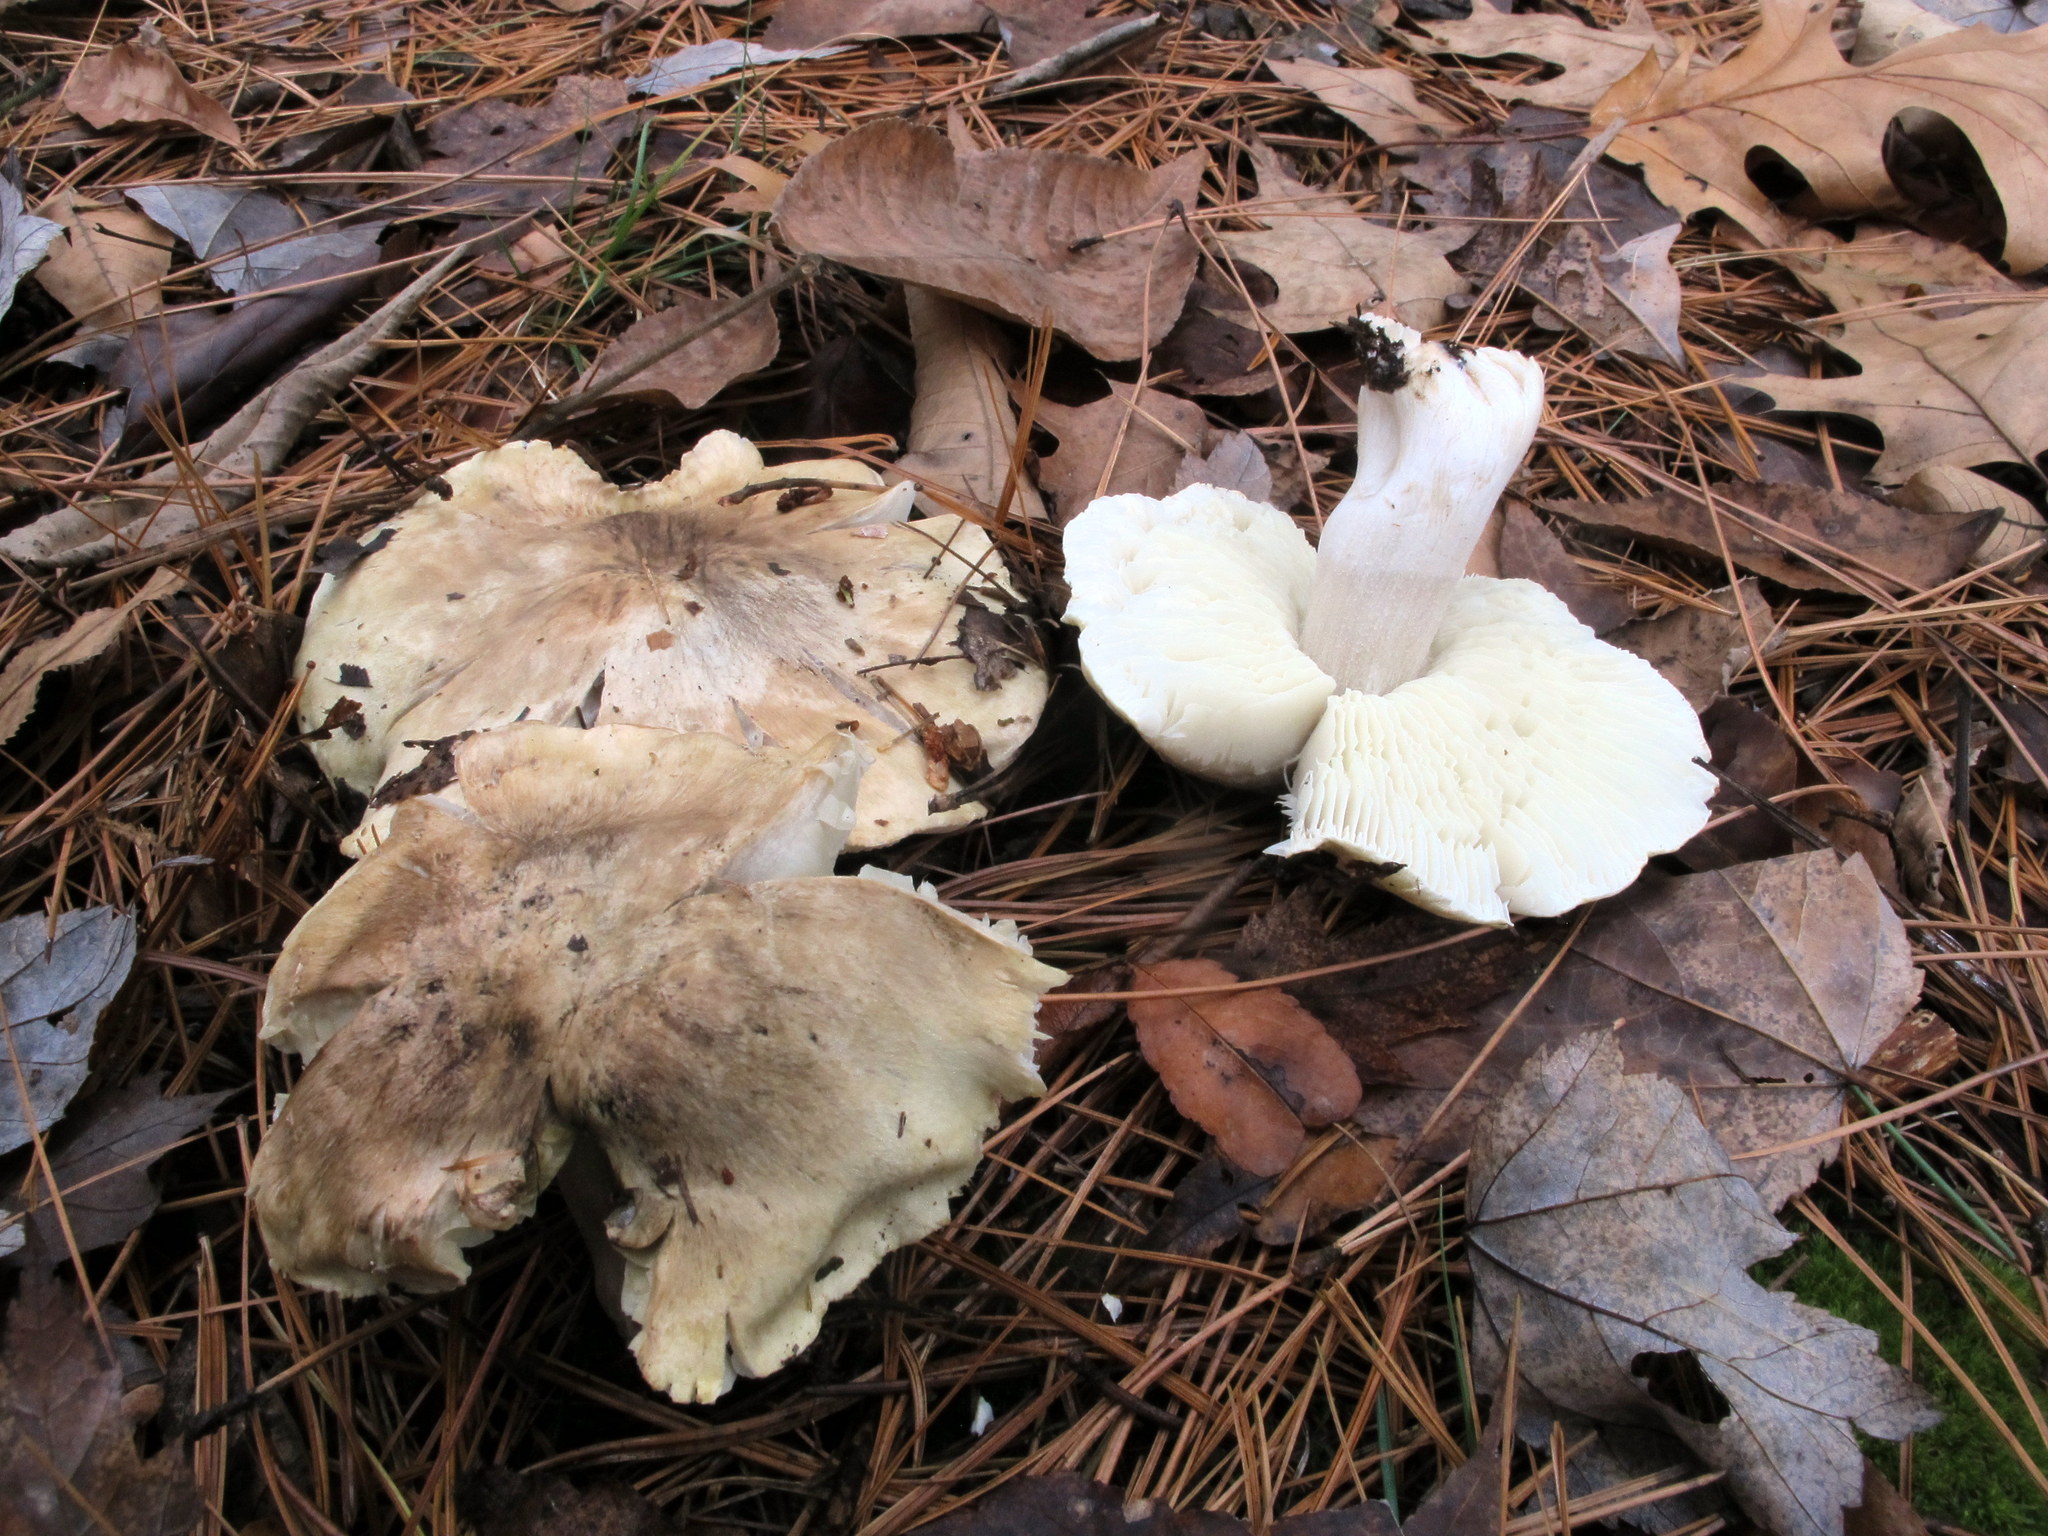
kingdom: Fungi
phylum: Basidiomycota
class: Agaricomycetes
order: Agaricales
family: Tricholomataceae
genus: Tricholoma
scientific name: Tricholoma intermedium
